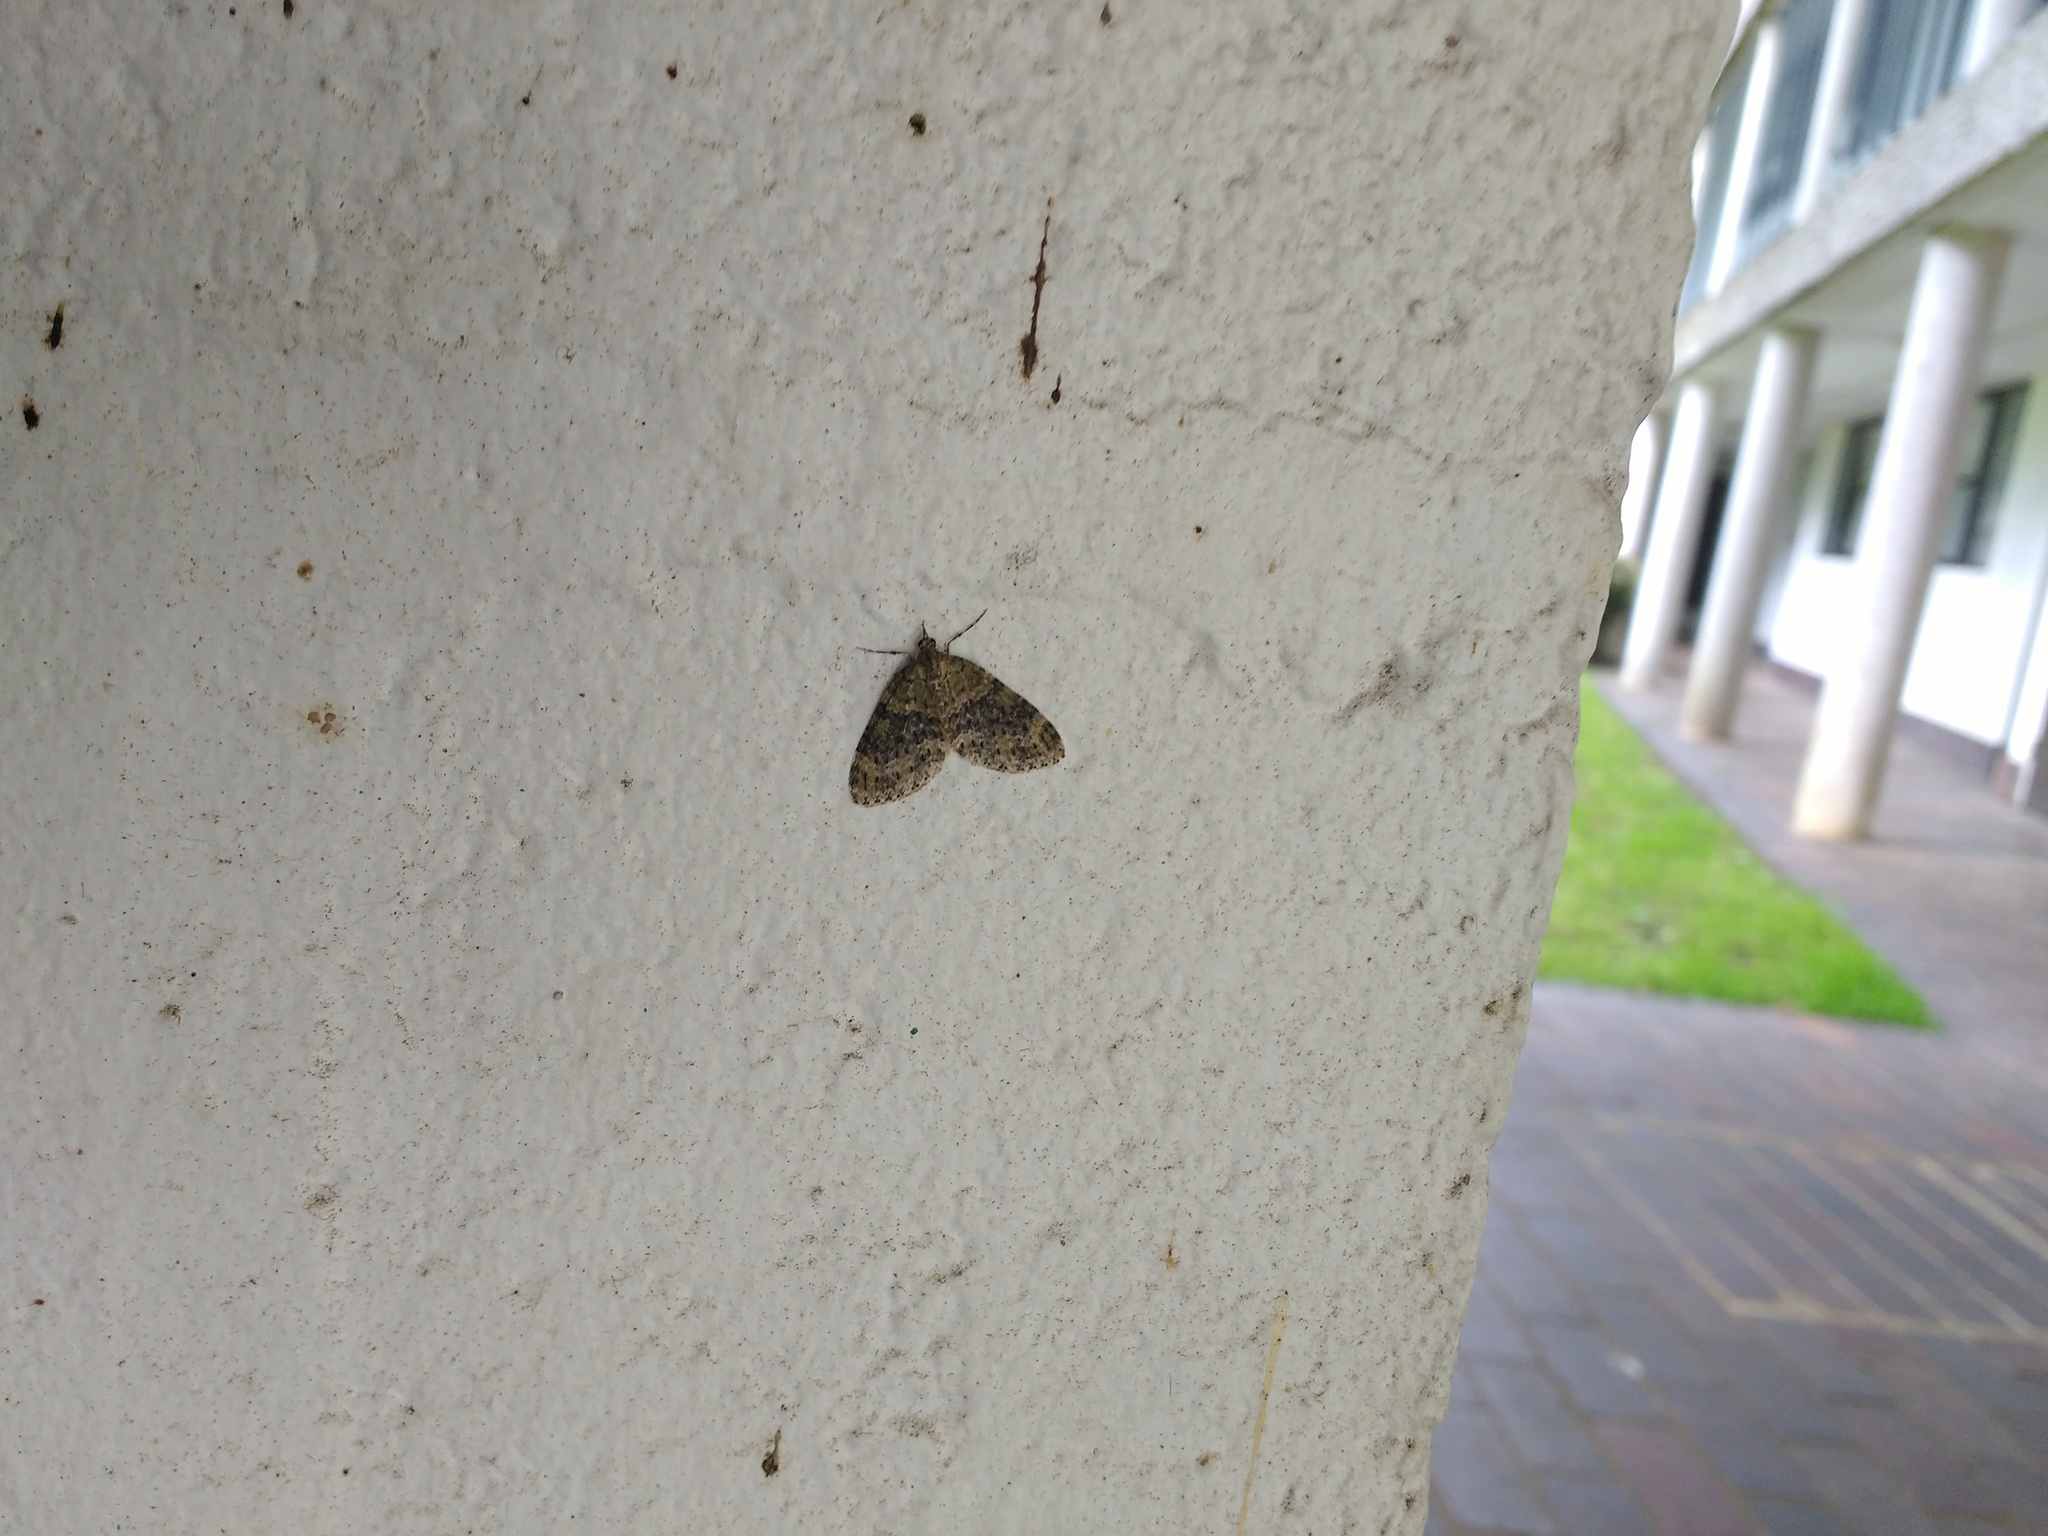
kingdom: Animalia
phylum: Arthropoda
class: Insecta
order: Lepidoptera
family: Geometridae
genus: Acasis
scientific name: Acasis viretata
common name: Yellow-barred brindle
